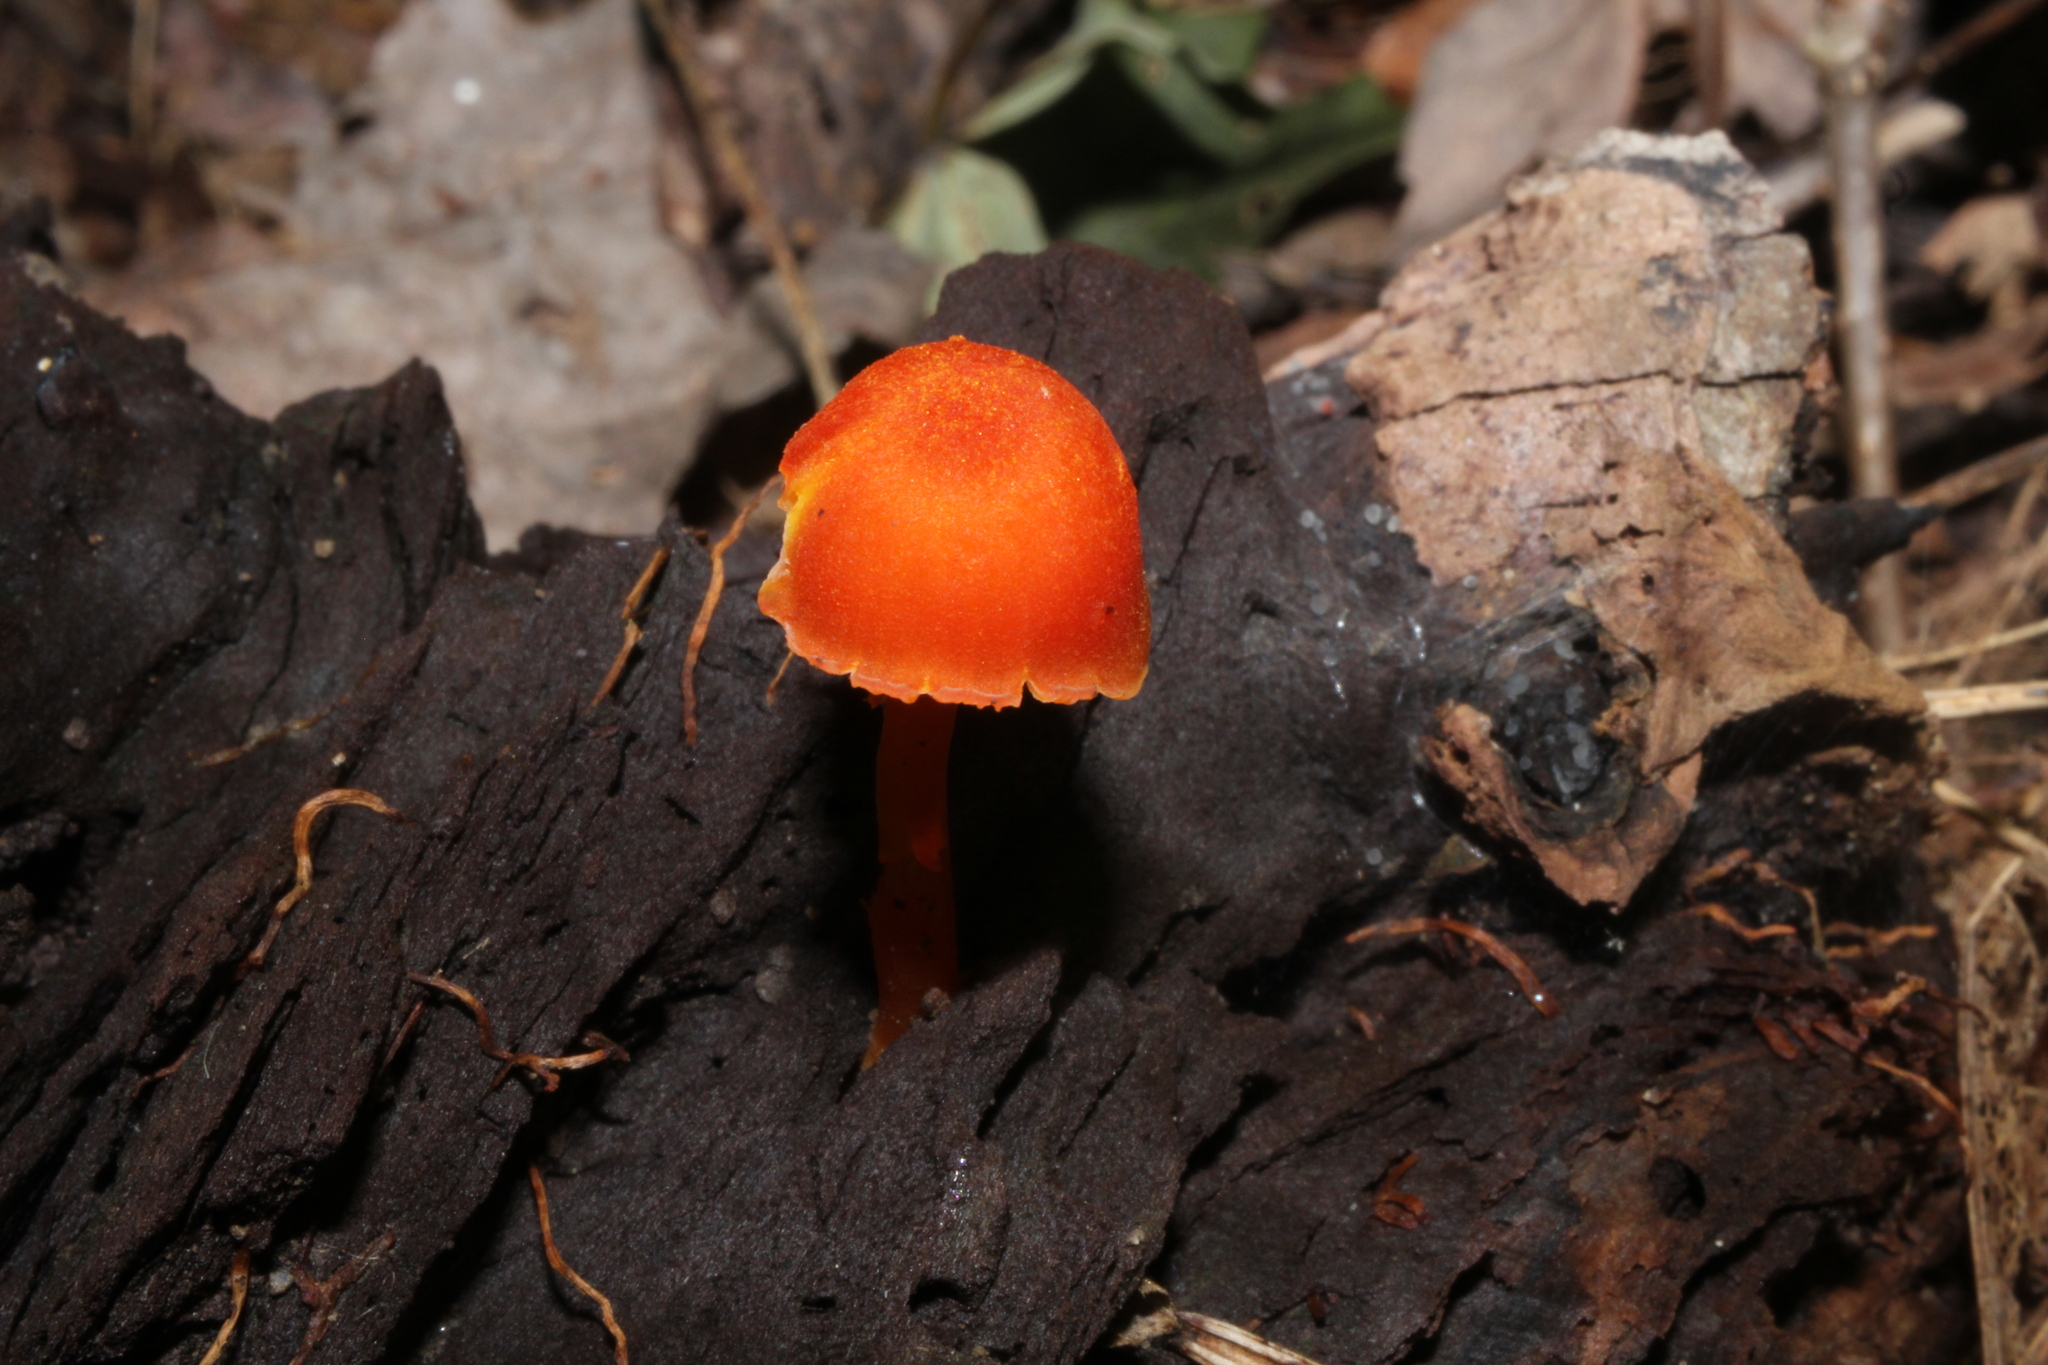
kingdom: Fungi
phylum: Basidiomycota
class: Agaricomycetes
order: Agaricales
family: Hygrophoraceae
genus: Hygrocybe
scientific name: Hygrocybe cantharellus
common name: Goblet waxcap
